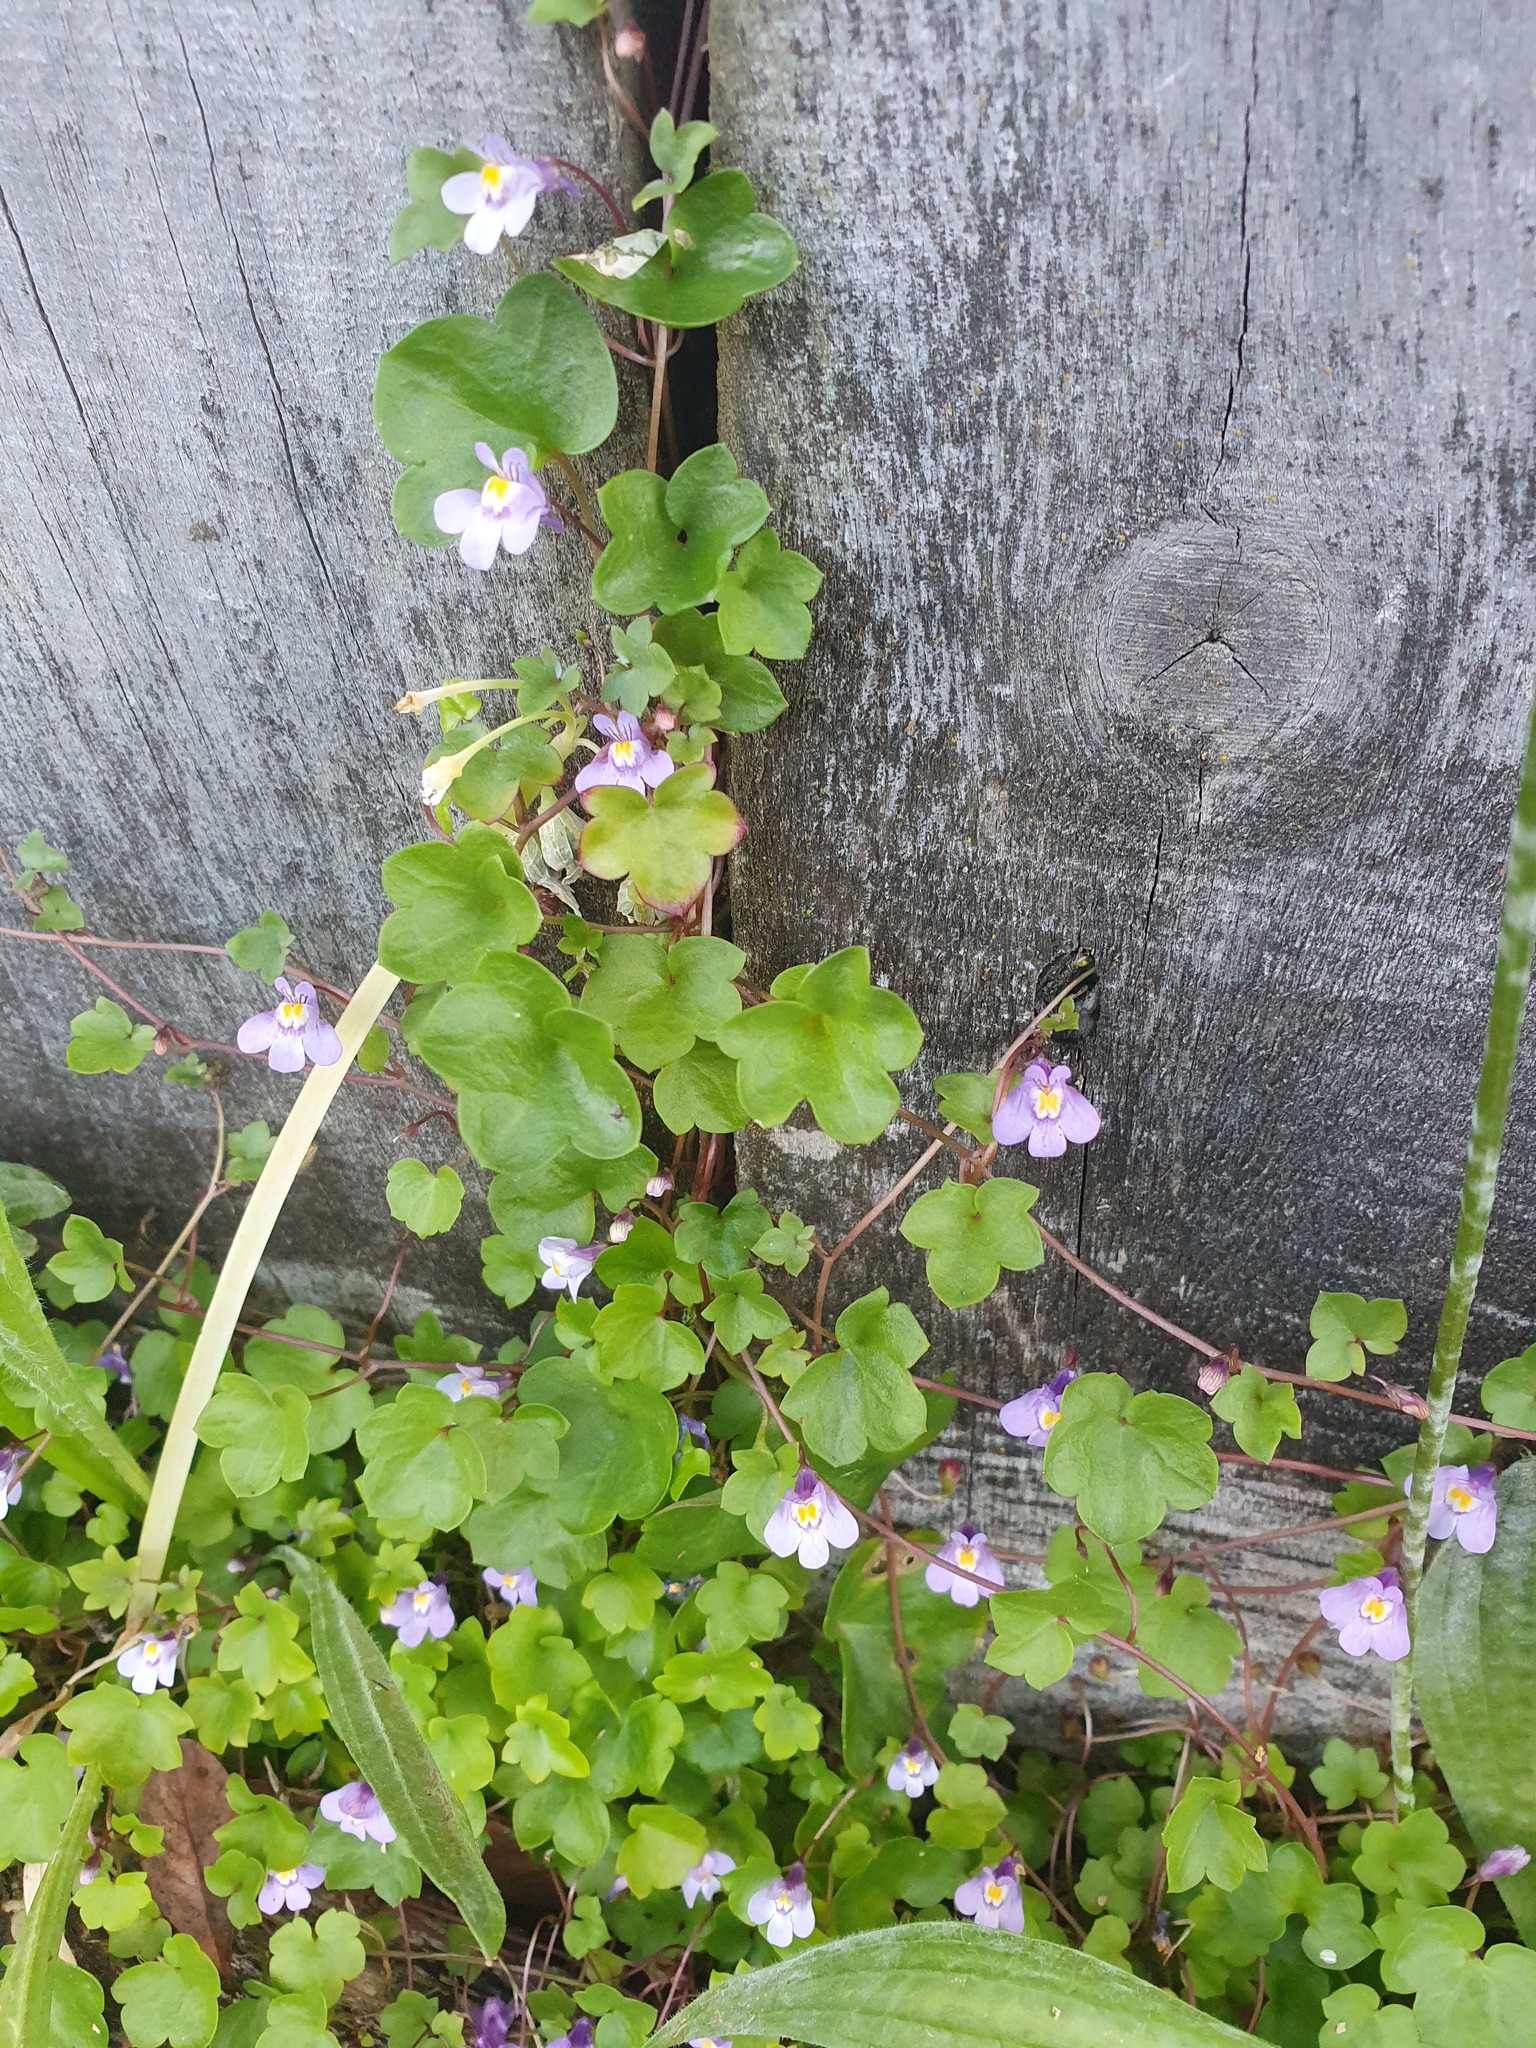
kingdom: Plantae
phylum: Tracheophyta
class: Magnoliopsida
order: Lamiales
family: Plantaginaceae
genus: Cymbalaria
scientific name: Cymbalaria muralis
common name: Ivy-leaved toadflax
